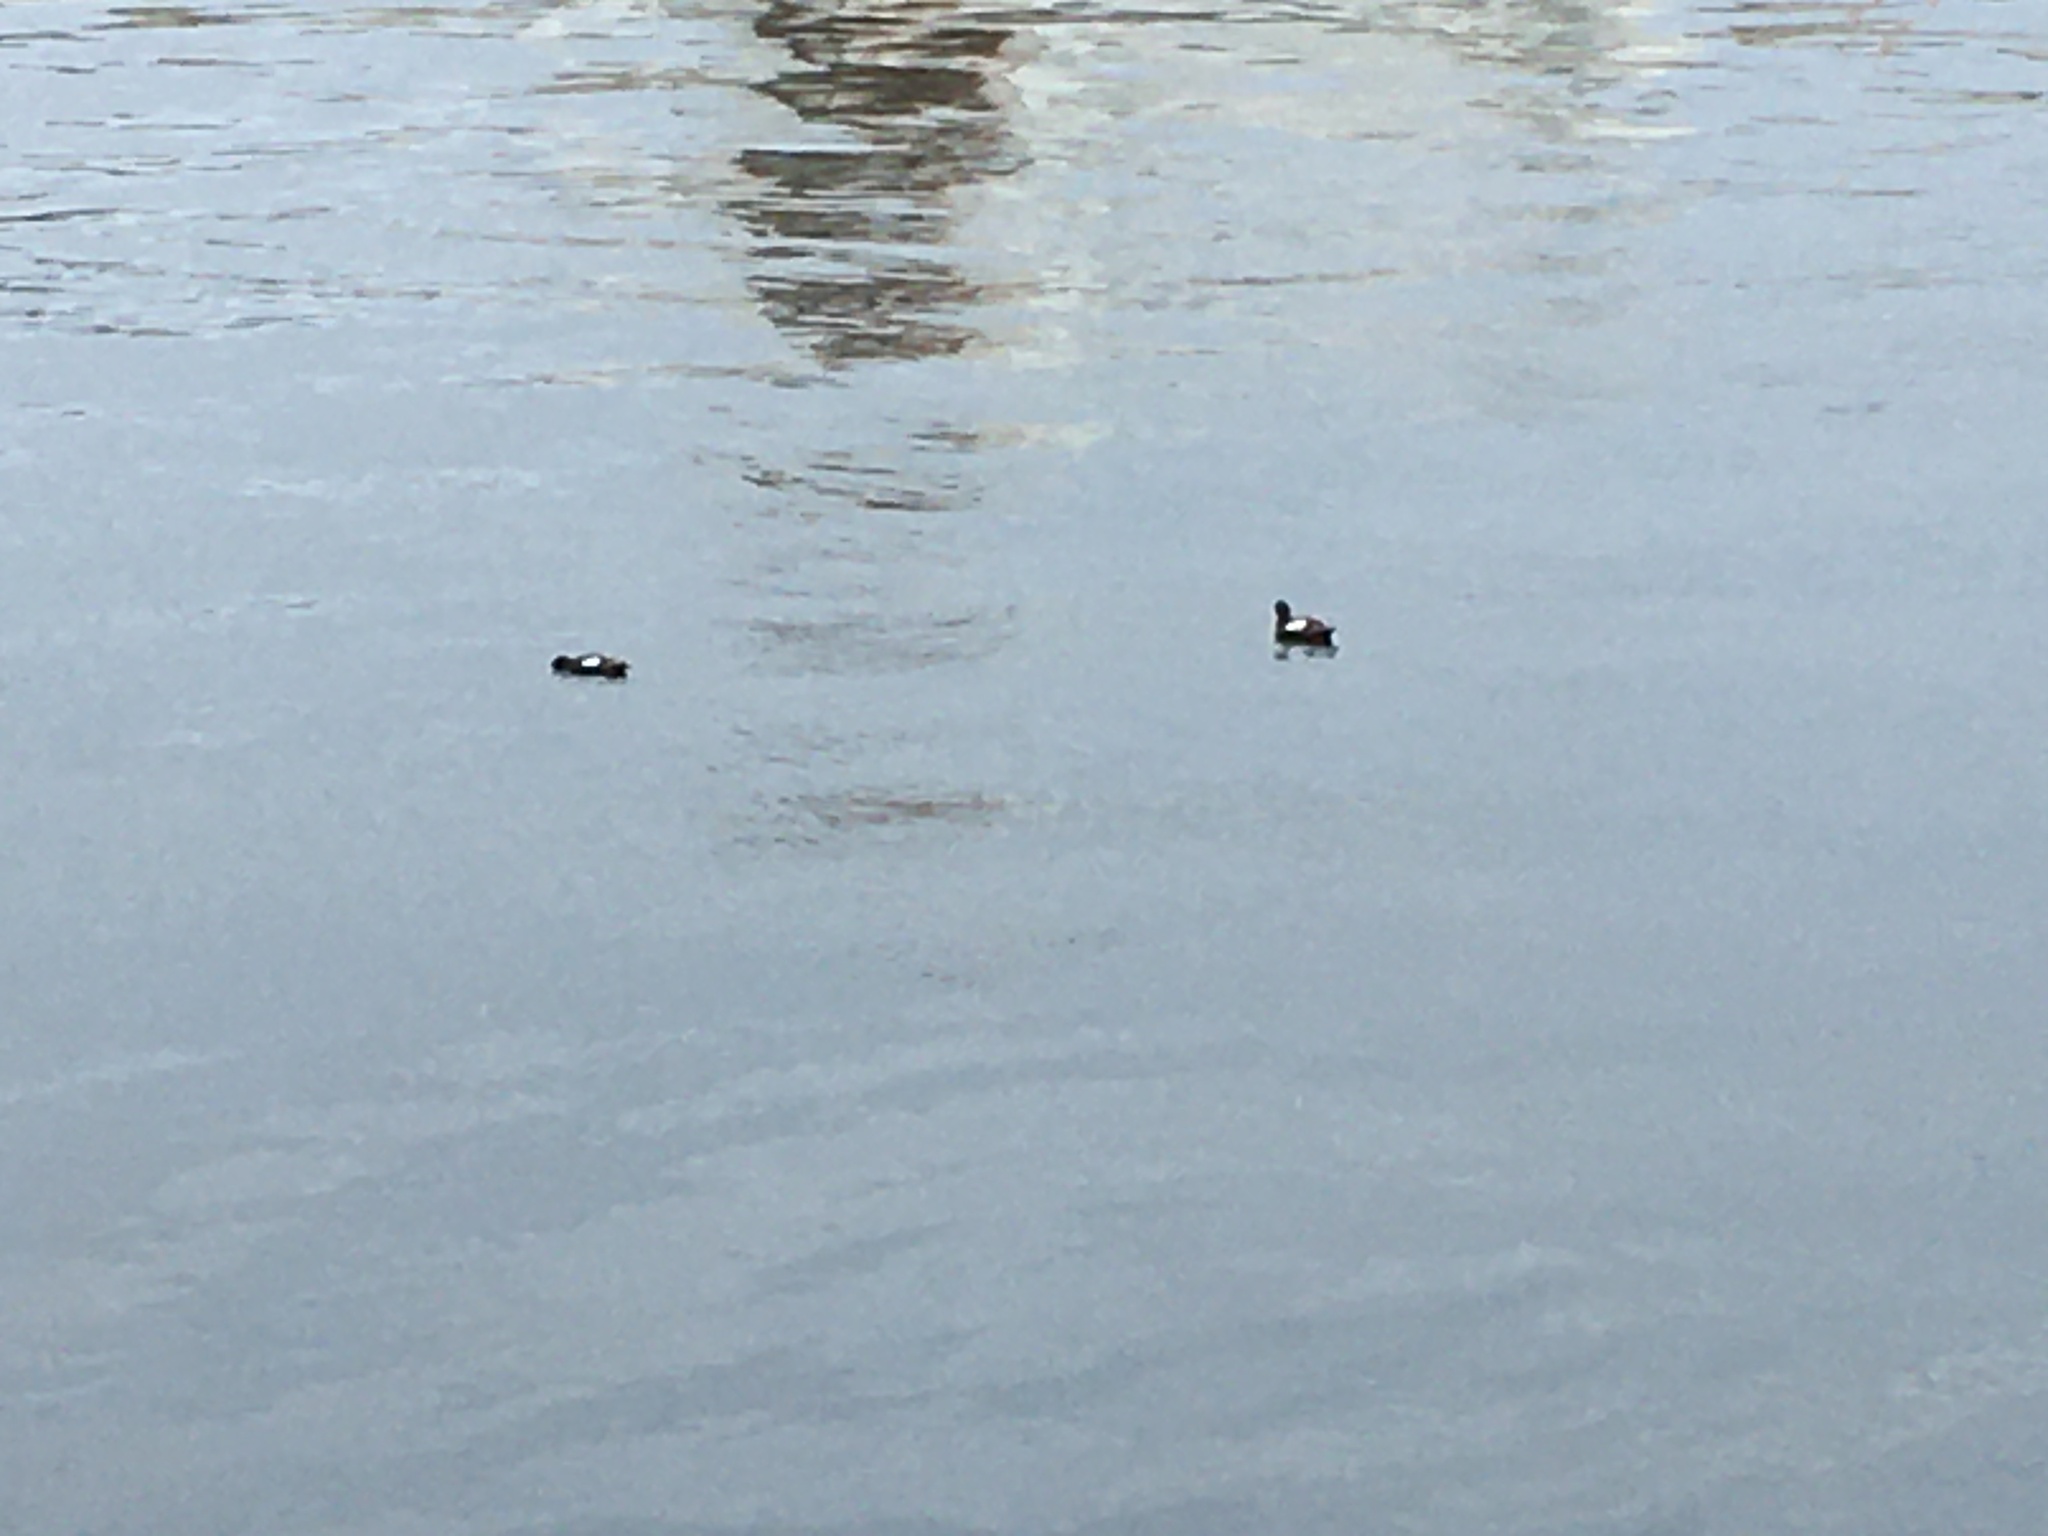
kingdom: Animalia
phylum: Chordata
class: Aves
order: Charadriiformes
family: Alcidae
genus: Cepphus
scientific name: Cepphus columba
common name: Pigeon guillemot
